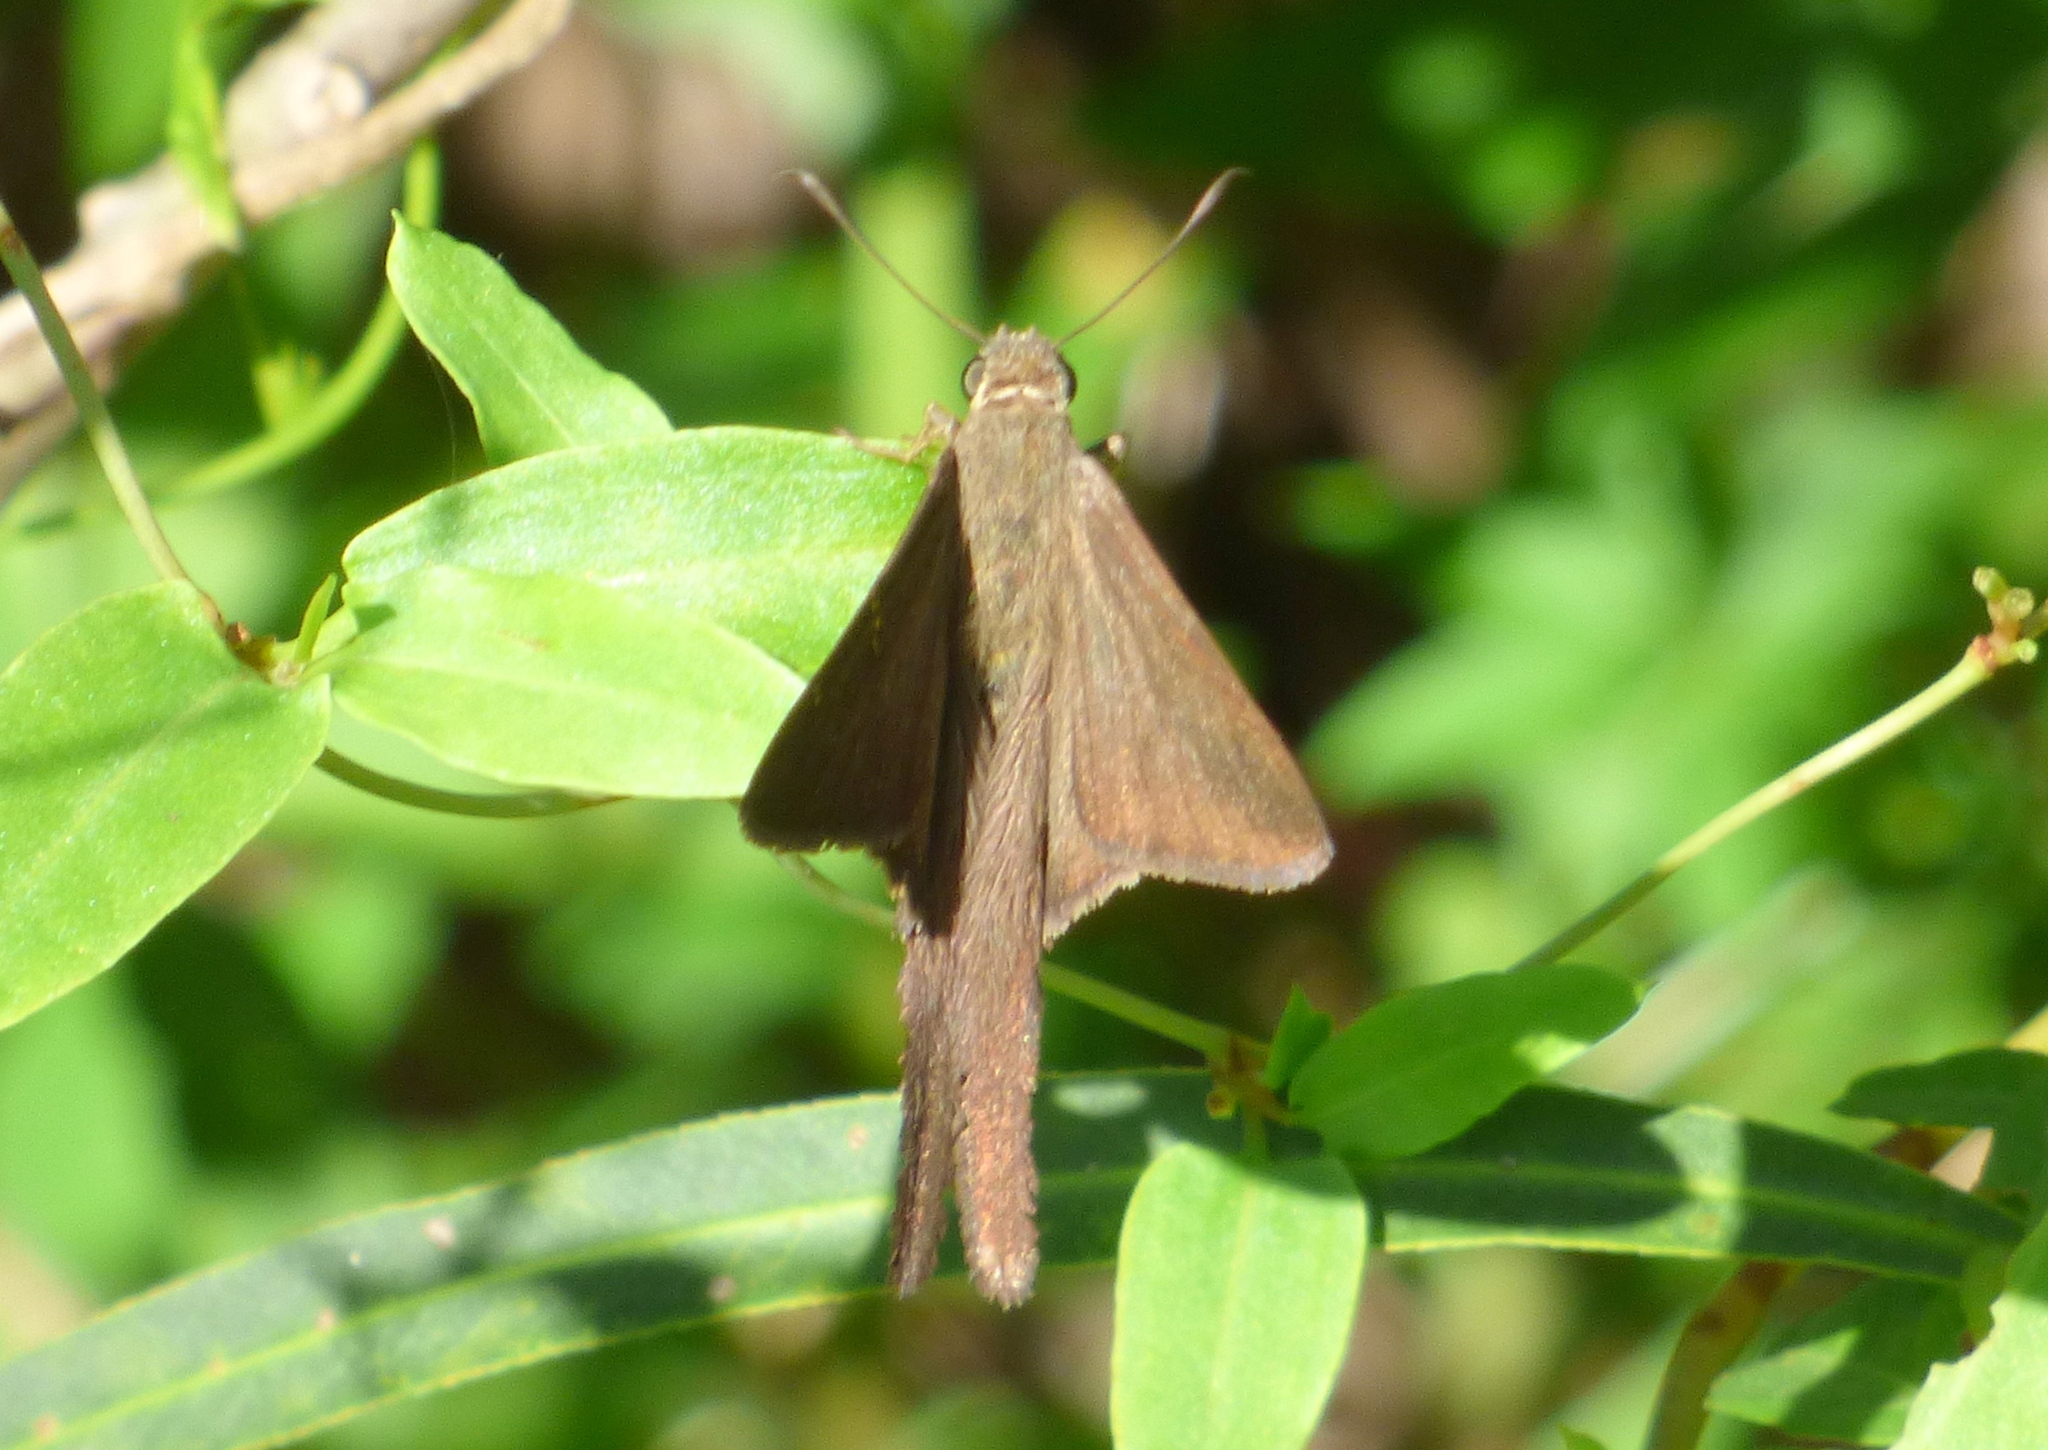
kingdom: Animalia
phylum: Arthropoda
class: Insecta
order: Lepidoptera
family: Hesperiidae
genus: Urbanus
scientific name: Urbanus procne
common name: Brown longtail
